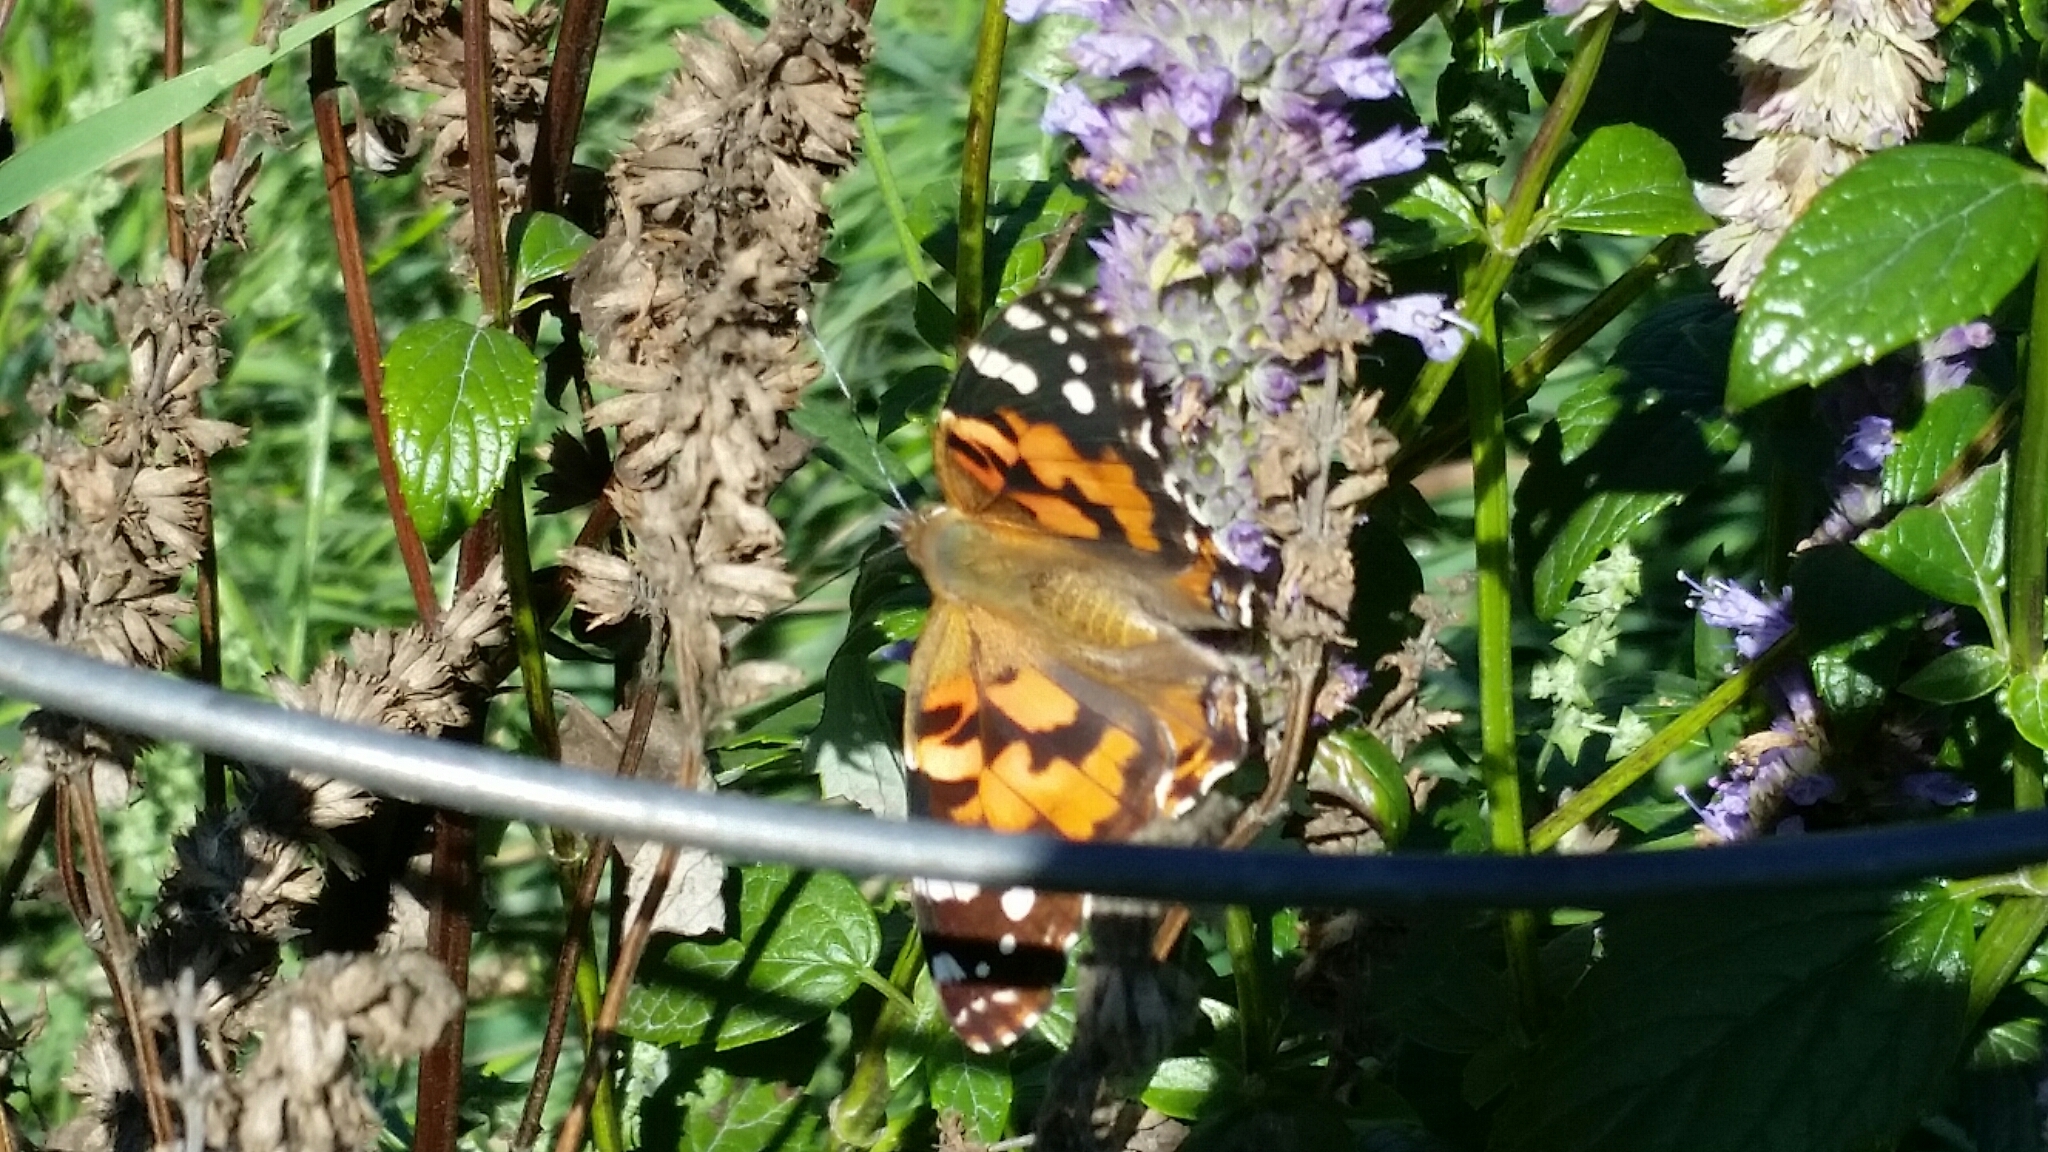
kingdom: Animalia
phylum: Arthropoda
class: Insecta
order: Lepidoptera
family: Nymphalidae
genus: Vanessa
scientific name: Vanessa cardui
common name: Painted lady
